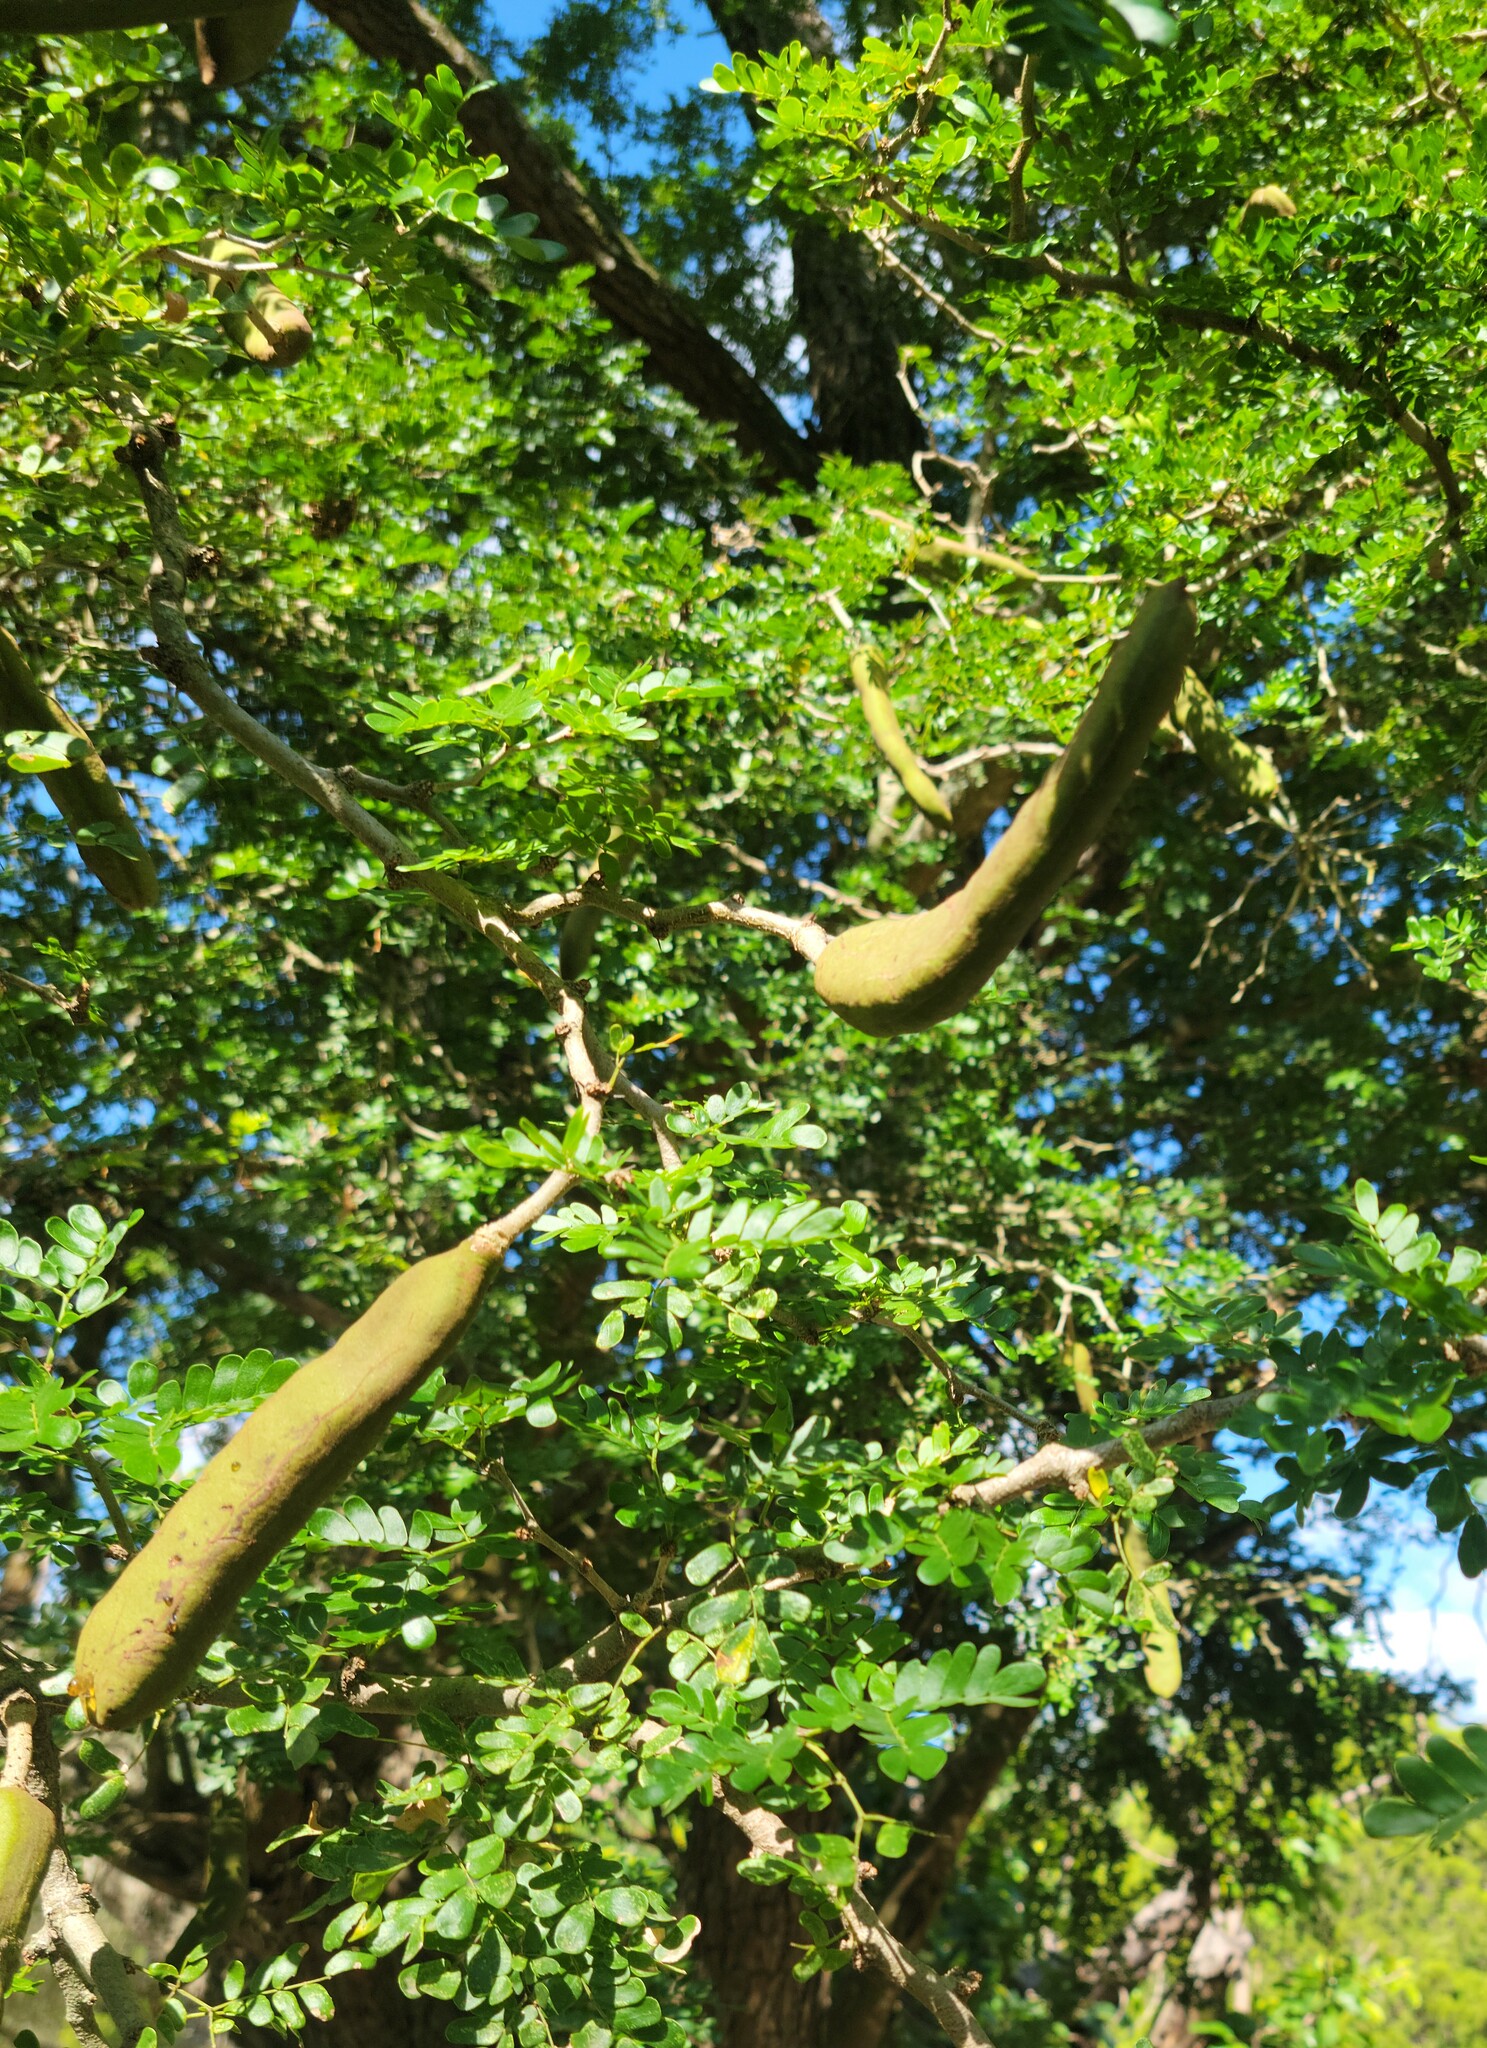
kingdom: Plantae
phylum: Tracheophyta
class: Magnoliopsida
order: Fabales
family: Fabaceae
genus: Ebenopsis
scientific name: Ebenopsis ebano
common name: Ebony blackbead
